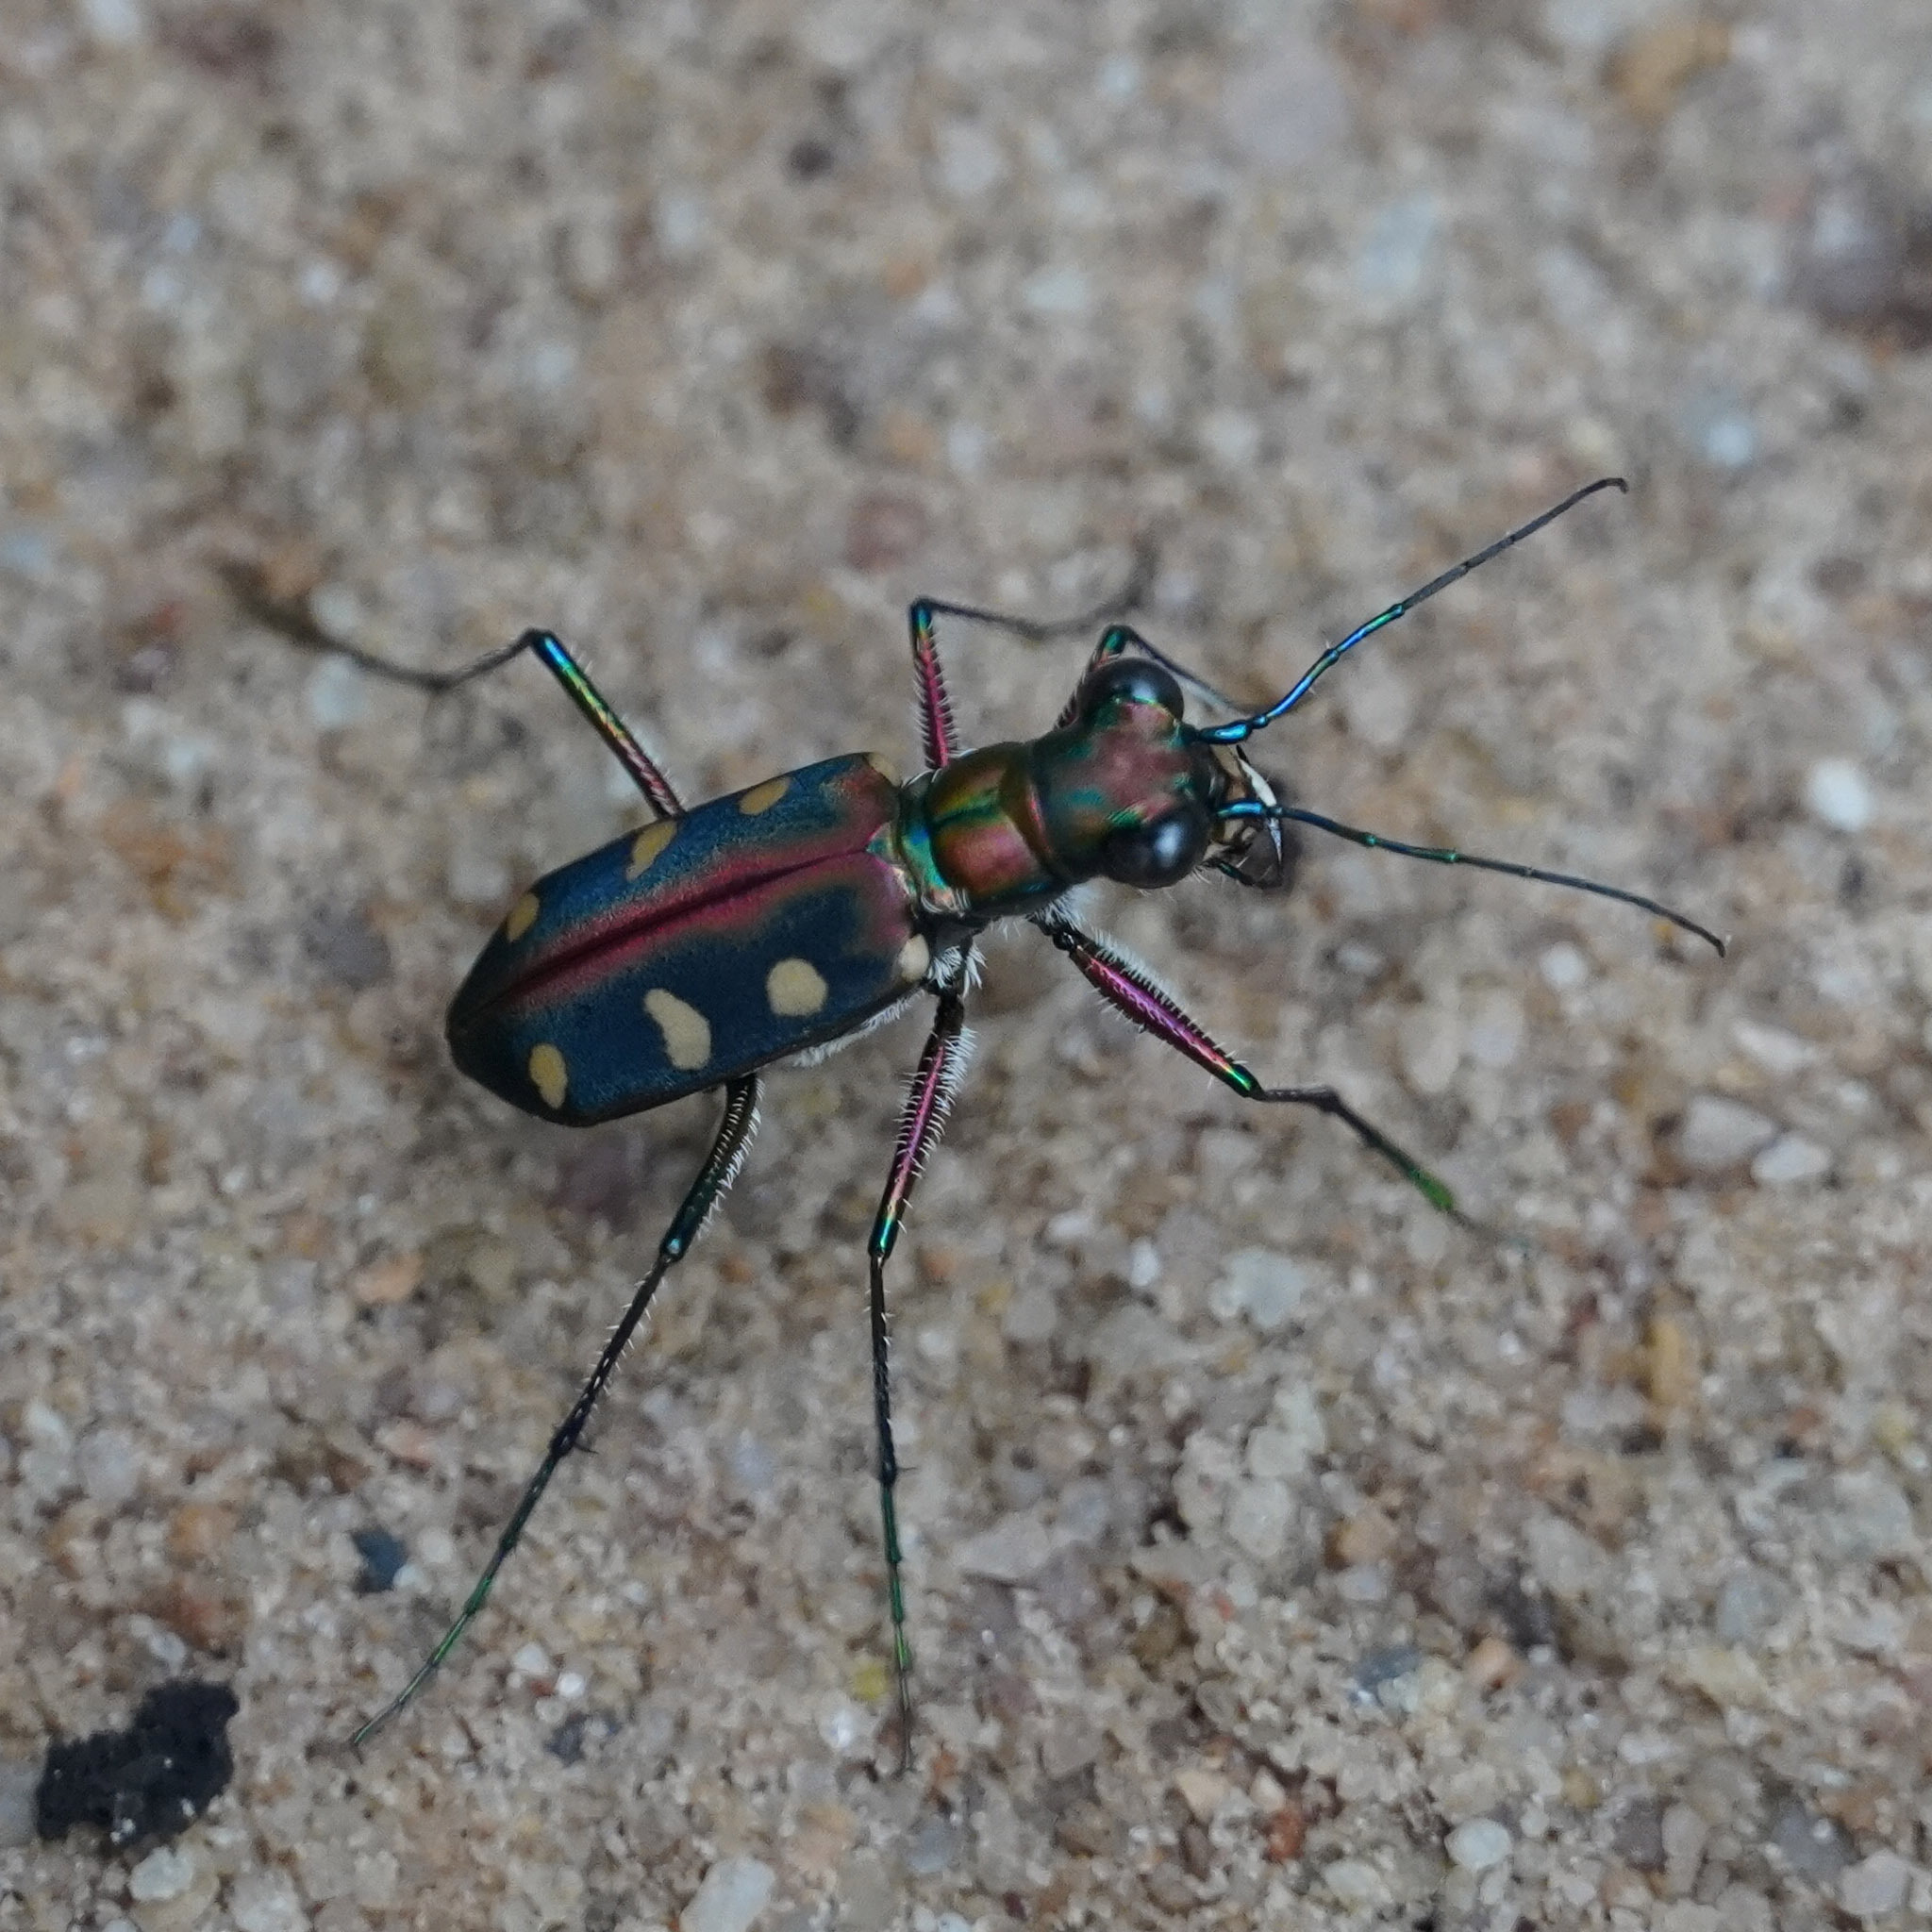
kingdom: Animalia
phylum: Arthropoda
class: Insecta
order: Coleoptera
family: Carabidae
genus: Cicindela
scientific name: Cicindela aurulenta
